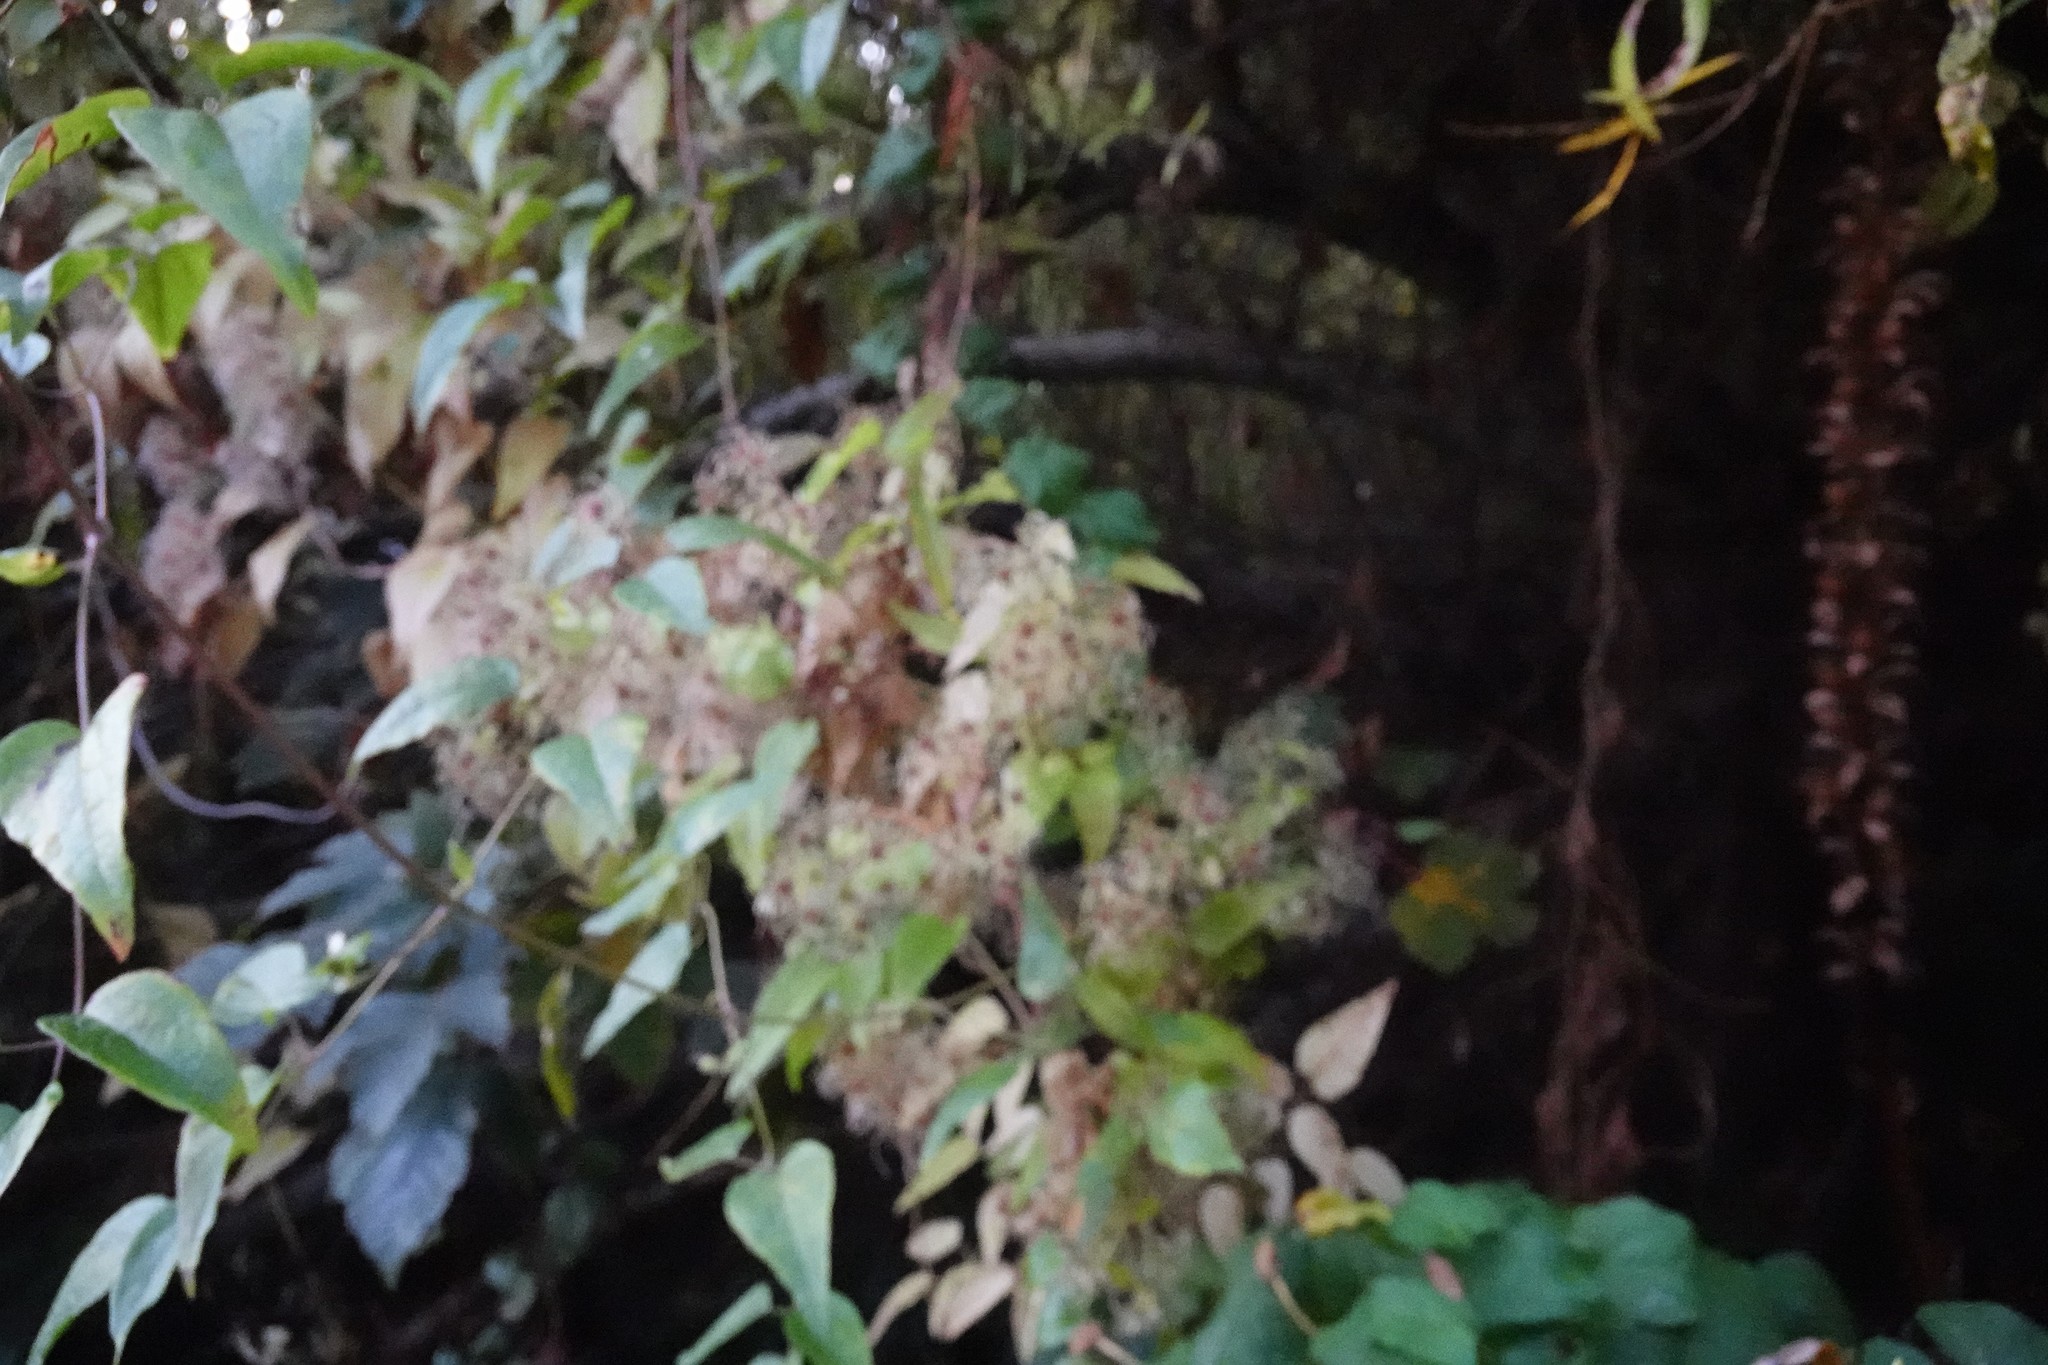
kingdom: Plantae
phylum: Tracheophyta
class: Magnoliopsida
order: Ranunculales
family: Ranunculaceae
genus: Clematis
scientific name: Clematis vitalba
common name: Evergreen clematis
